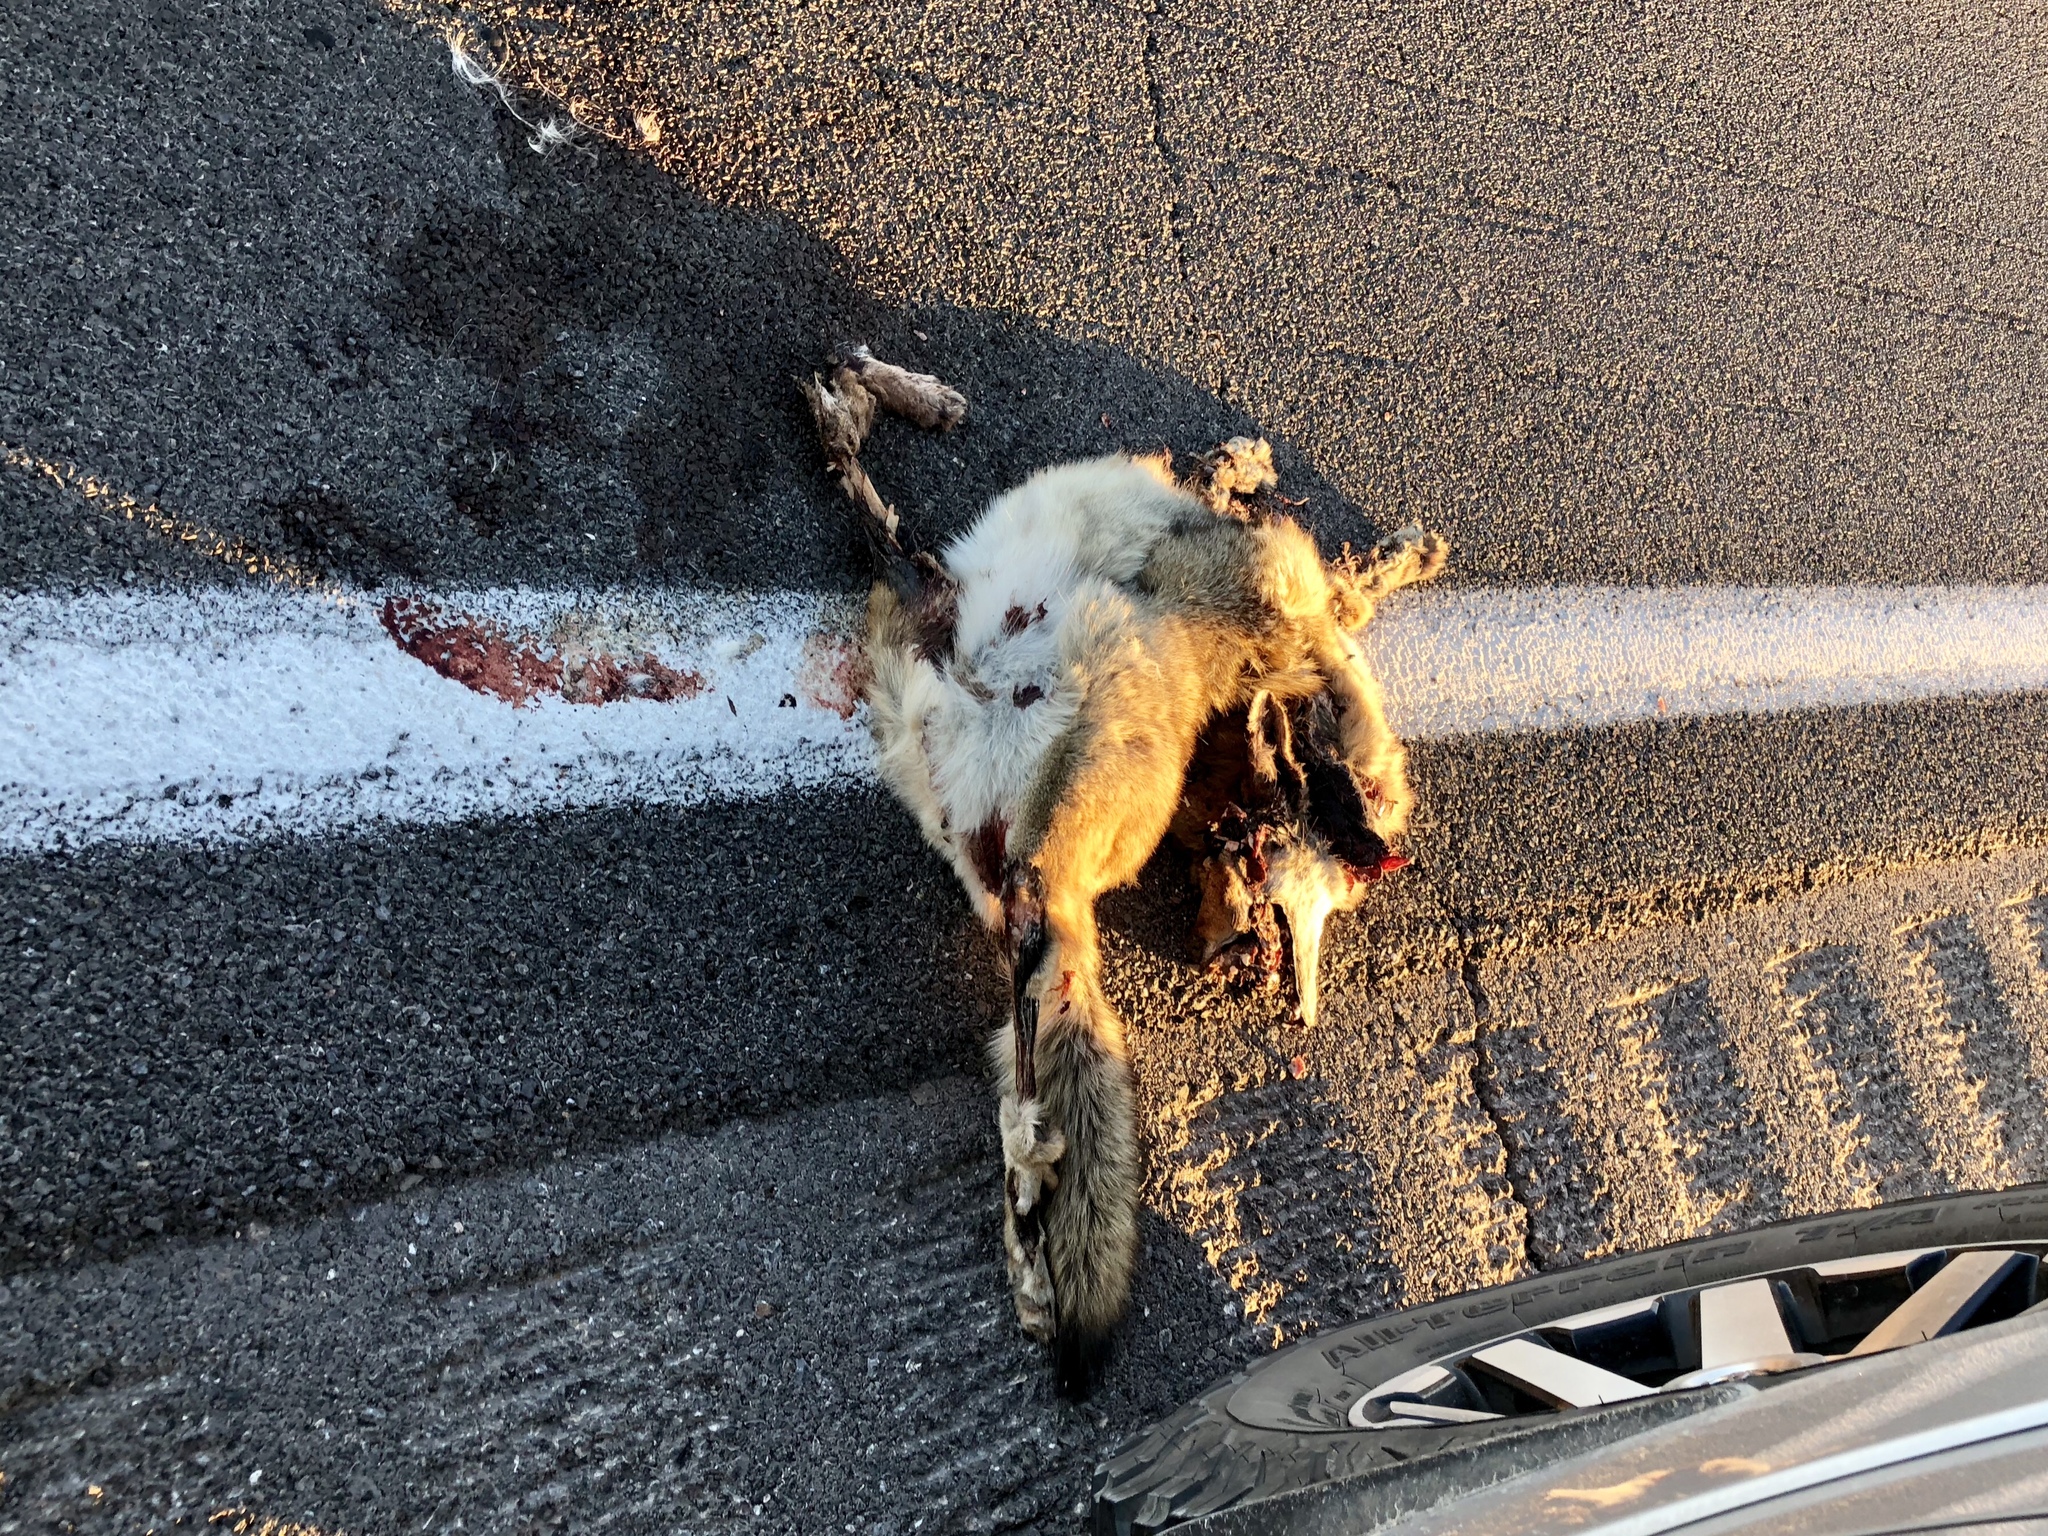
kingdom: Animalia
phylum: Chordata
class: Mammalia
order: Carnivora
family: Canidae
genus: Canis
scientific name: Canis latrans
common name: Coyote
